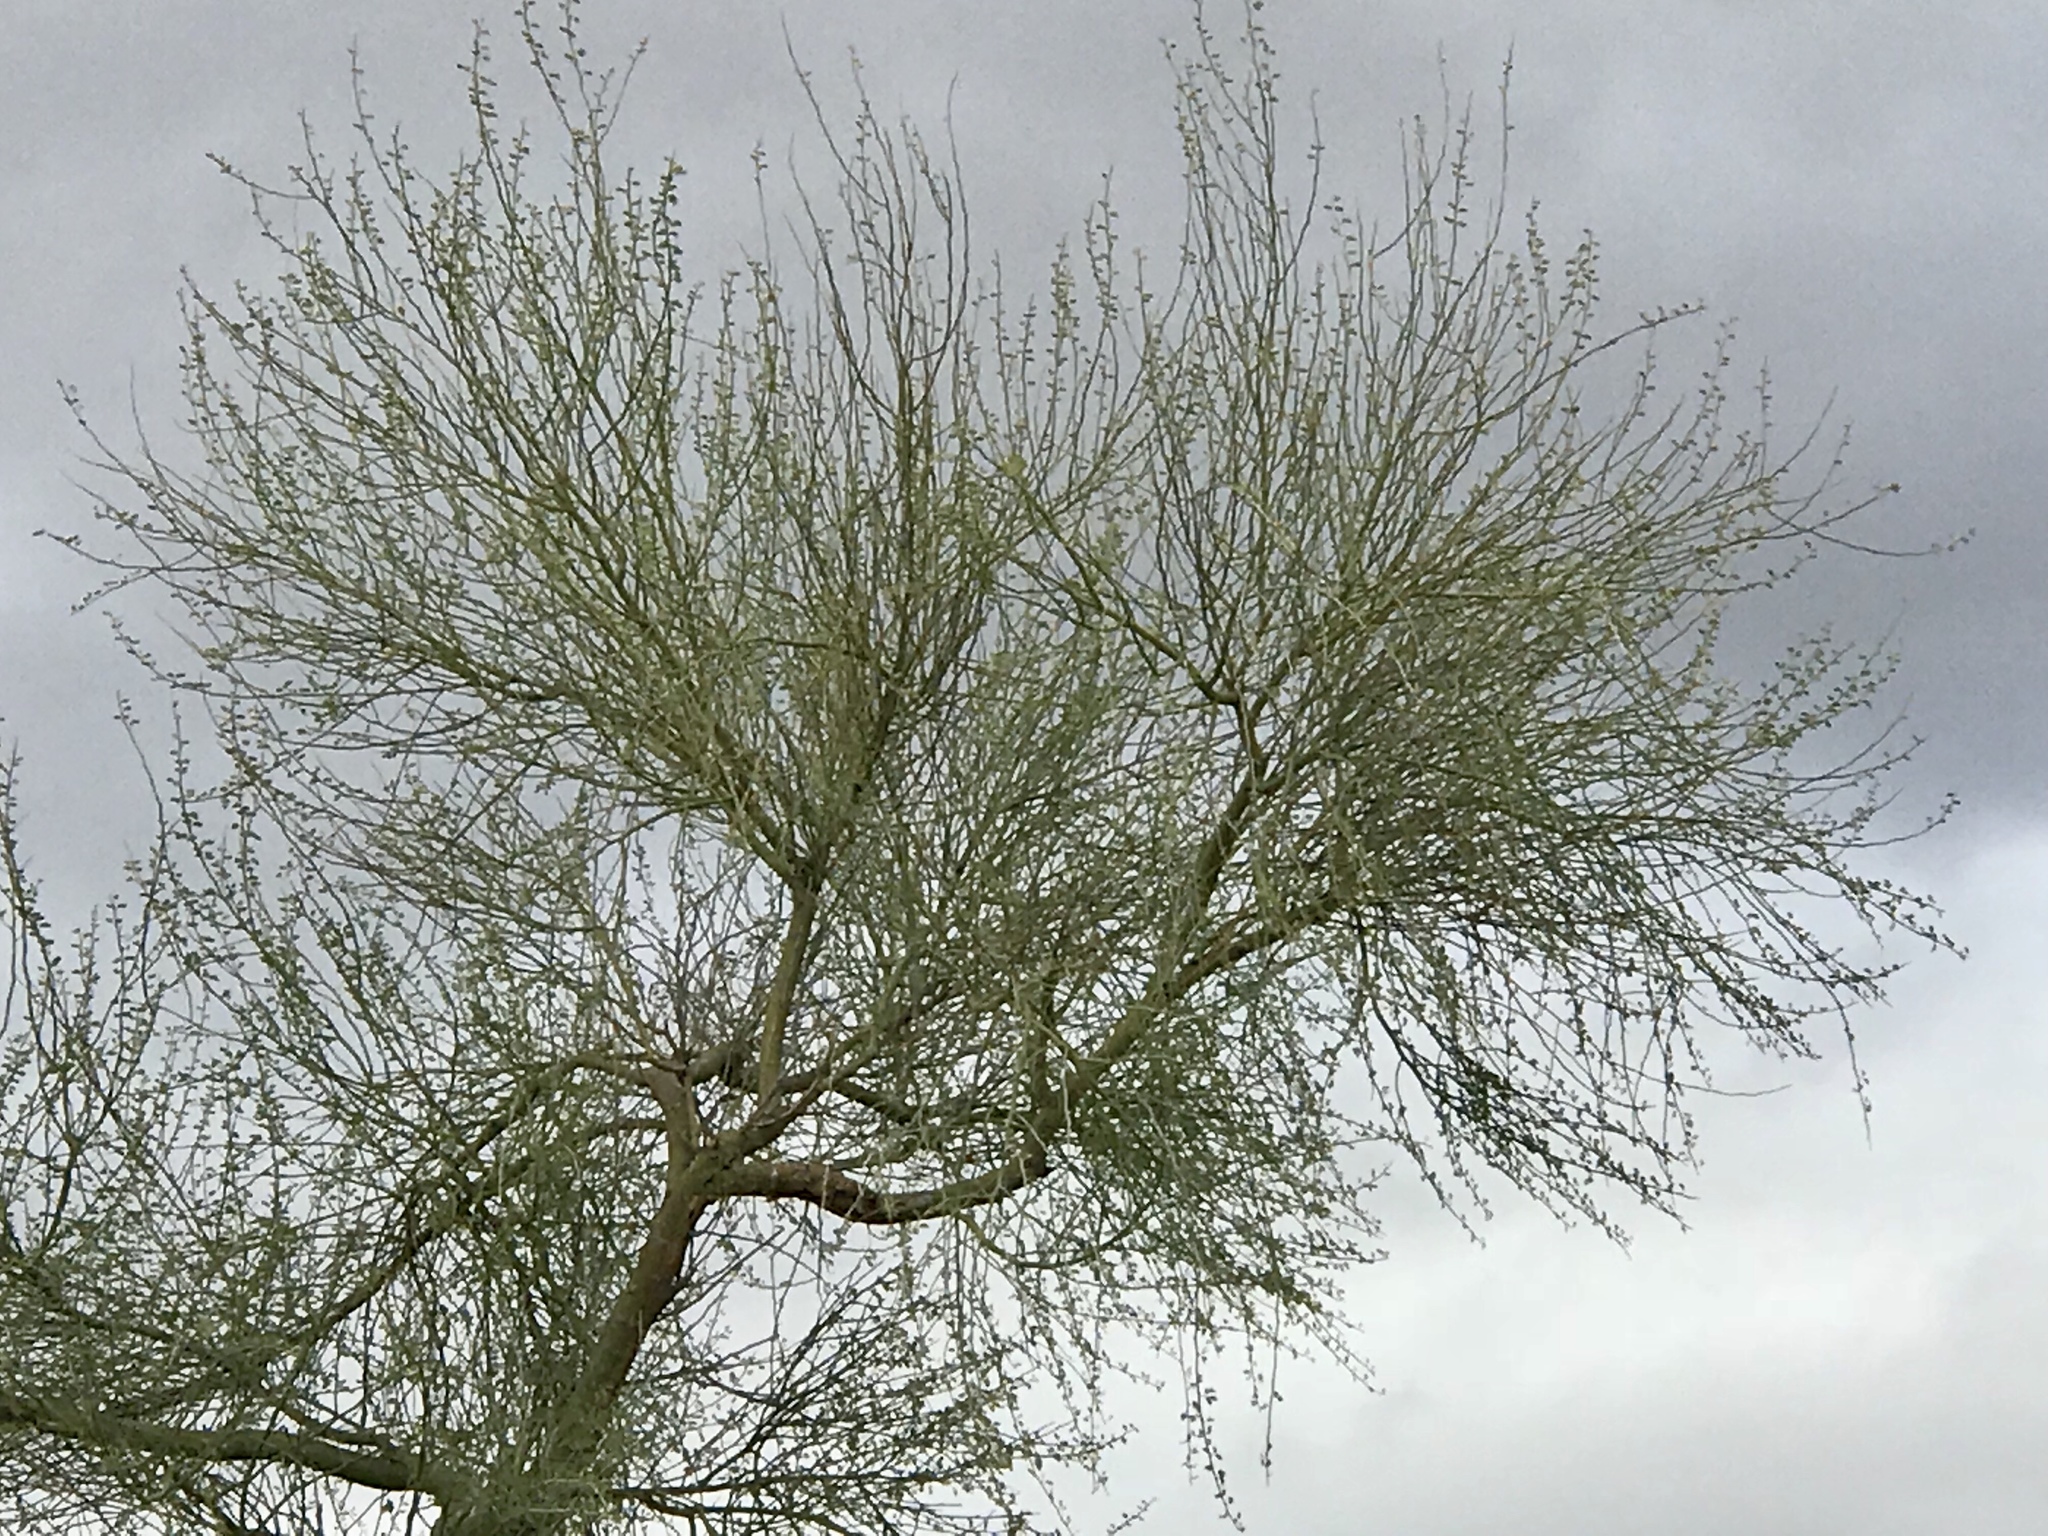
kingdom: Plantae
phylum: Tracheophyta
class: Magnoliopsida
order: Fabales
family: Fabaceae
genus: Parkinsonia
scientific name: Parkinsonia florida
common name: Blue paloverde
